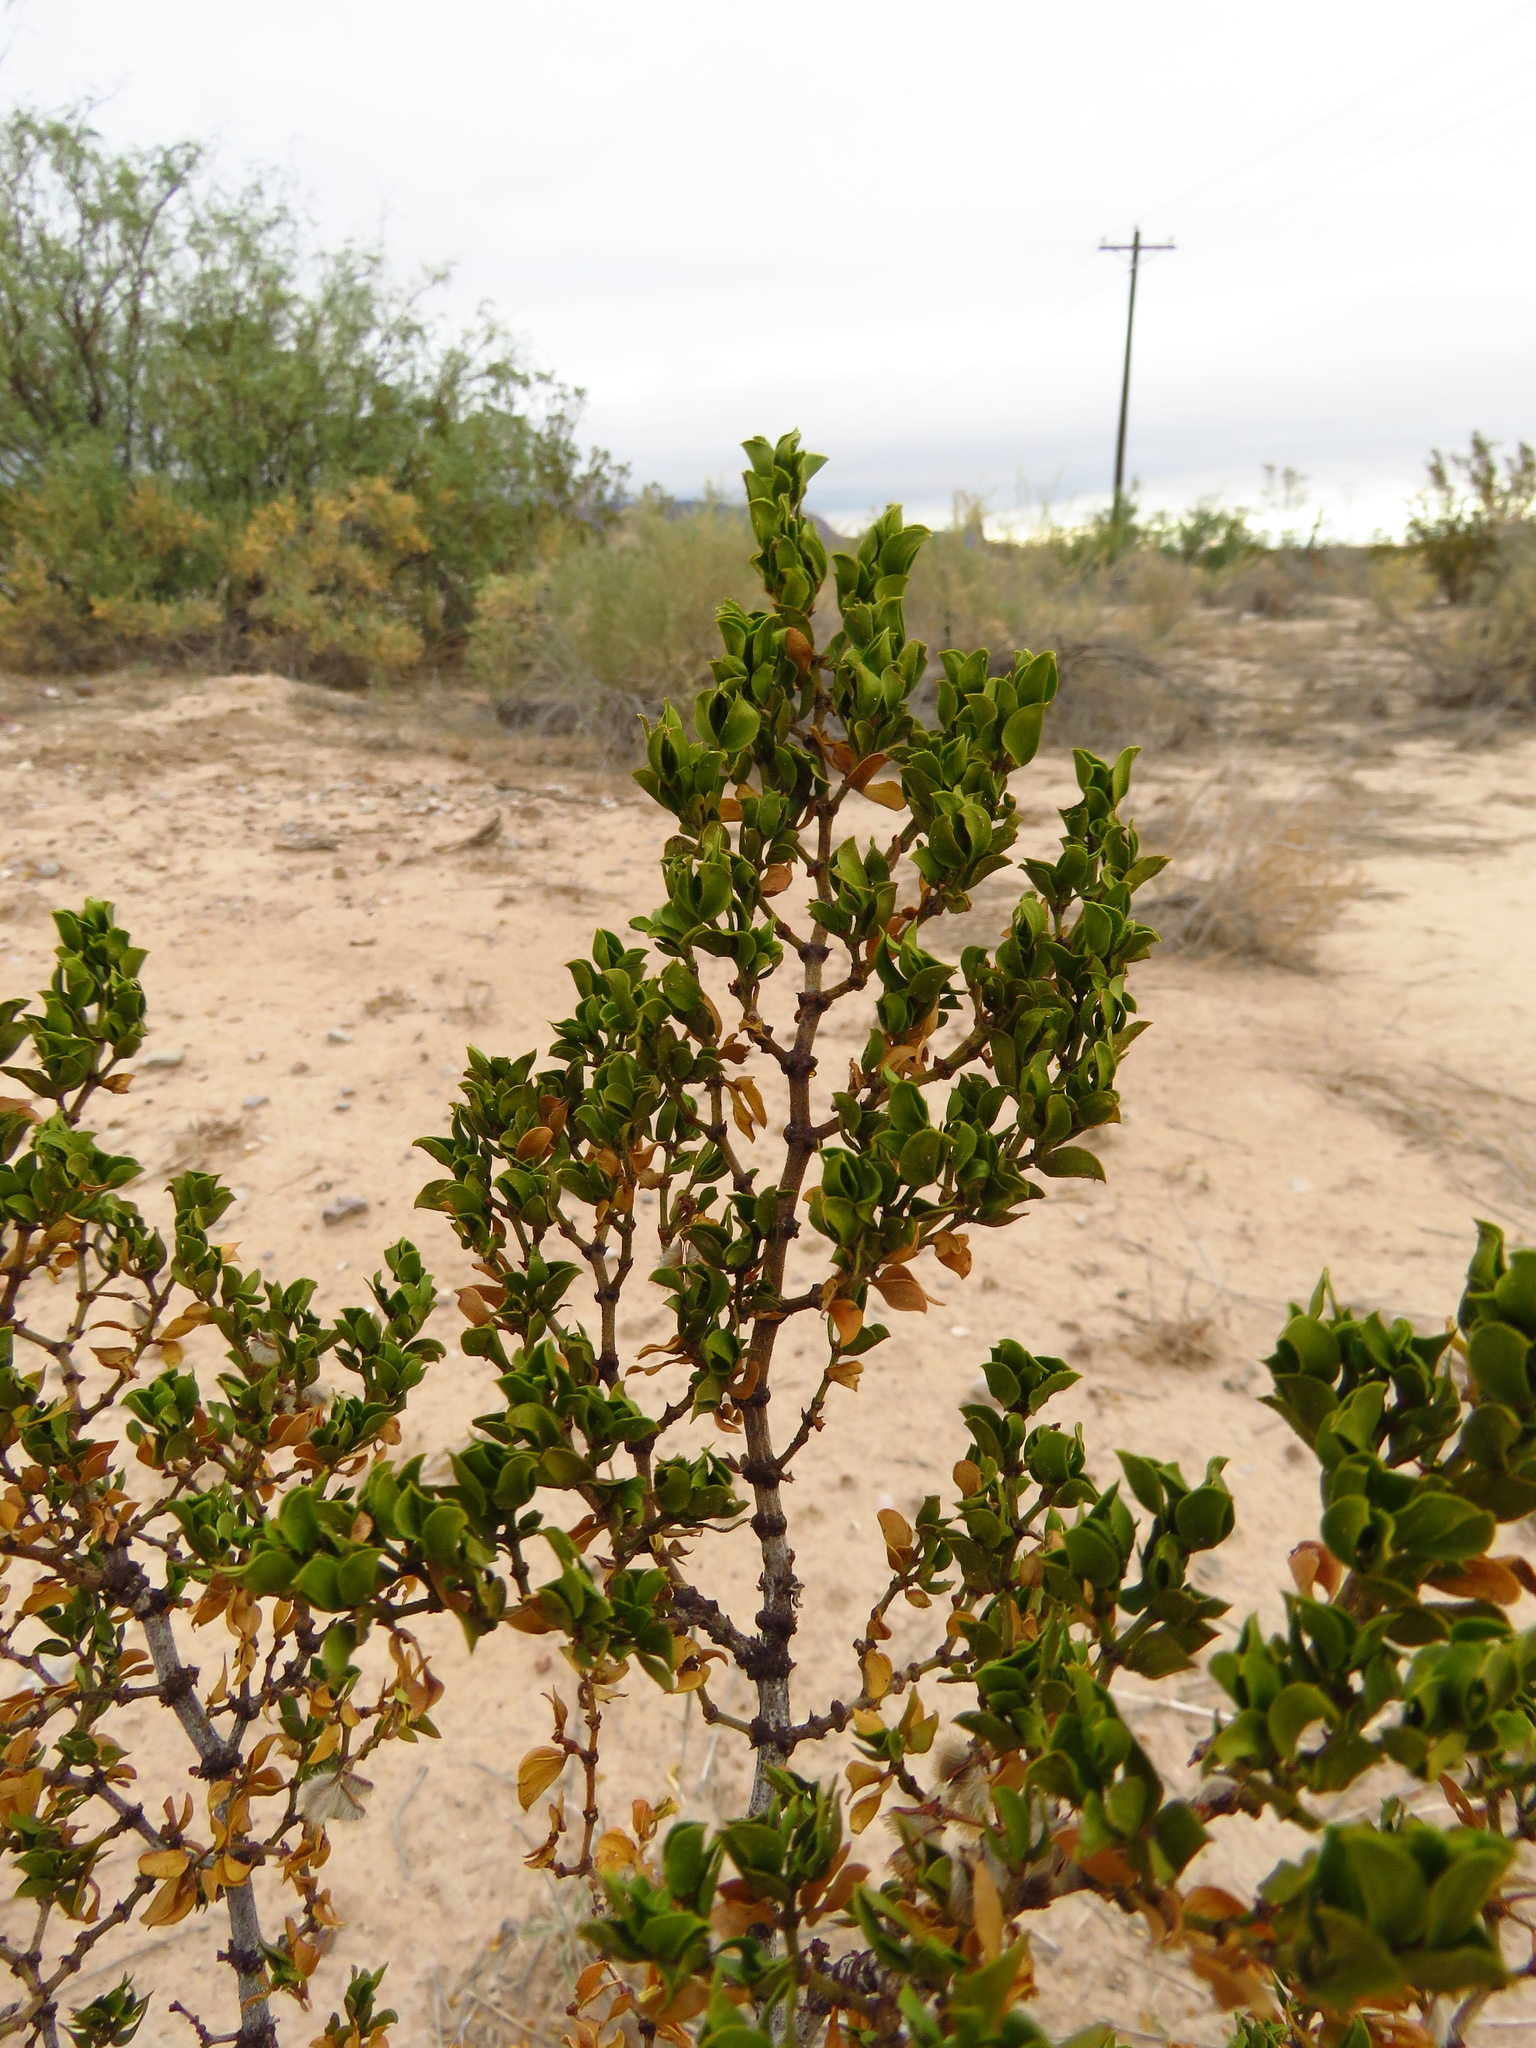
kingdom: Plantae
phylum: Tracheophyta
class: Magnoliopsida
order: Zygophyllales
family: Zygophyllaceae
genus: Larrea
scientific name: Larrea tridentata
